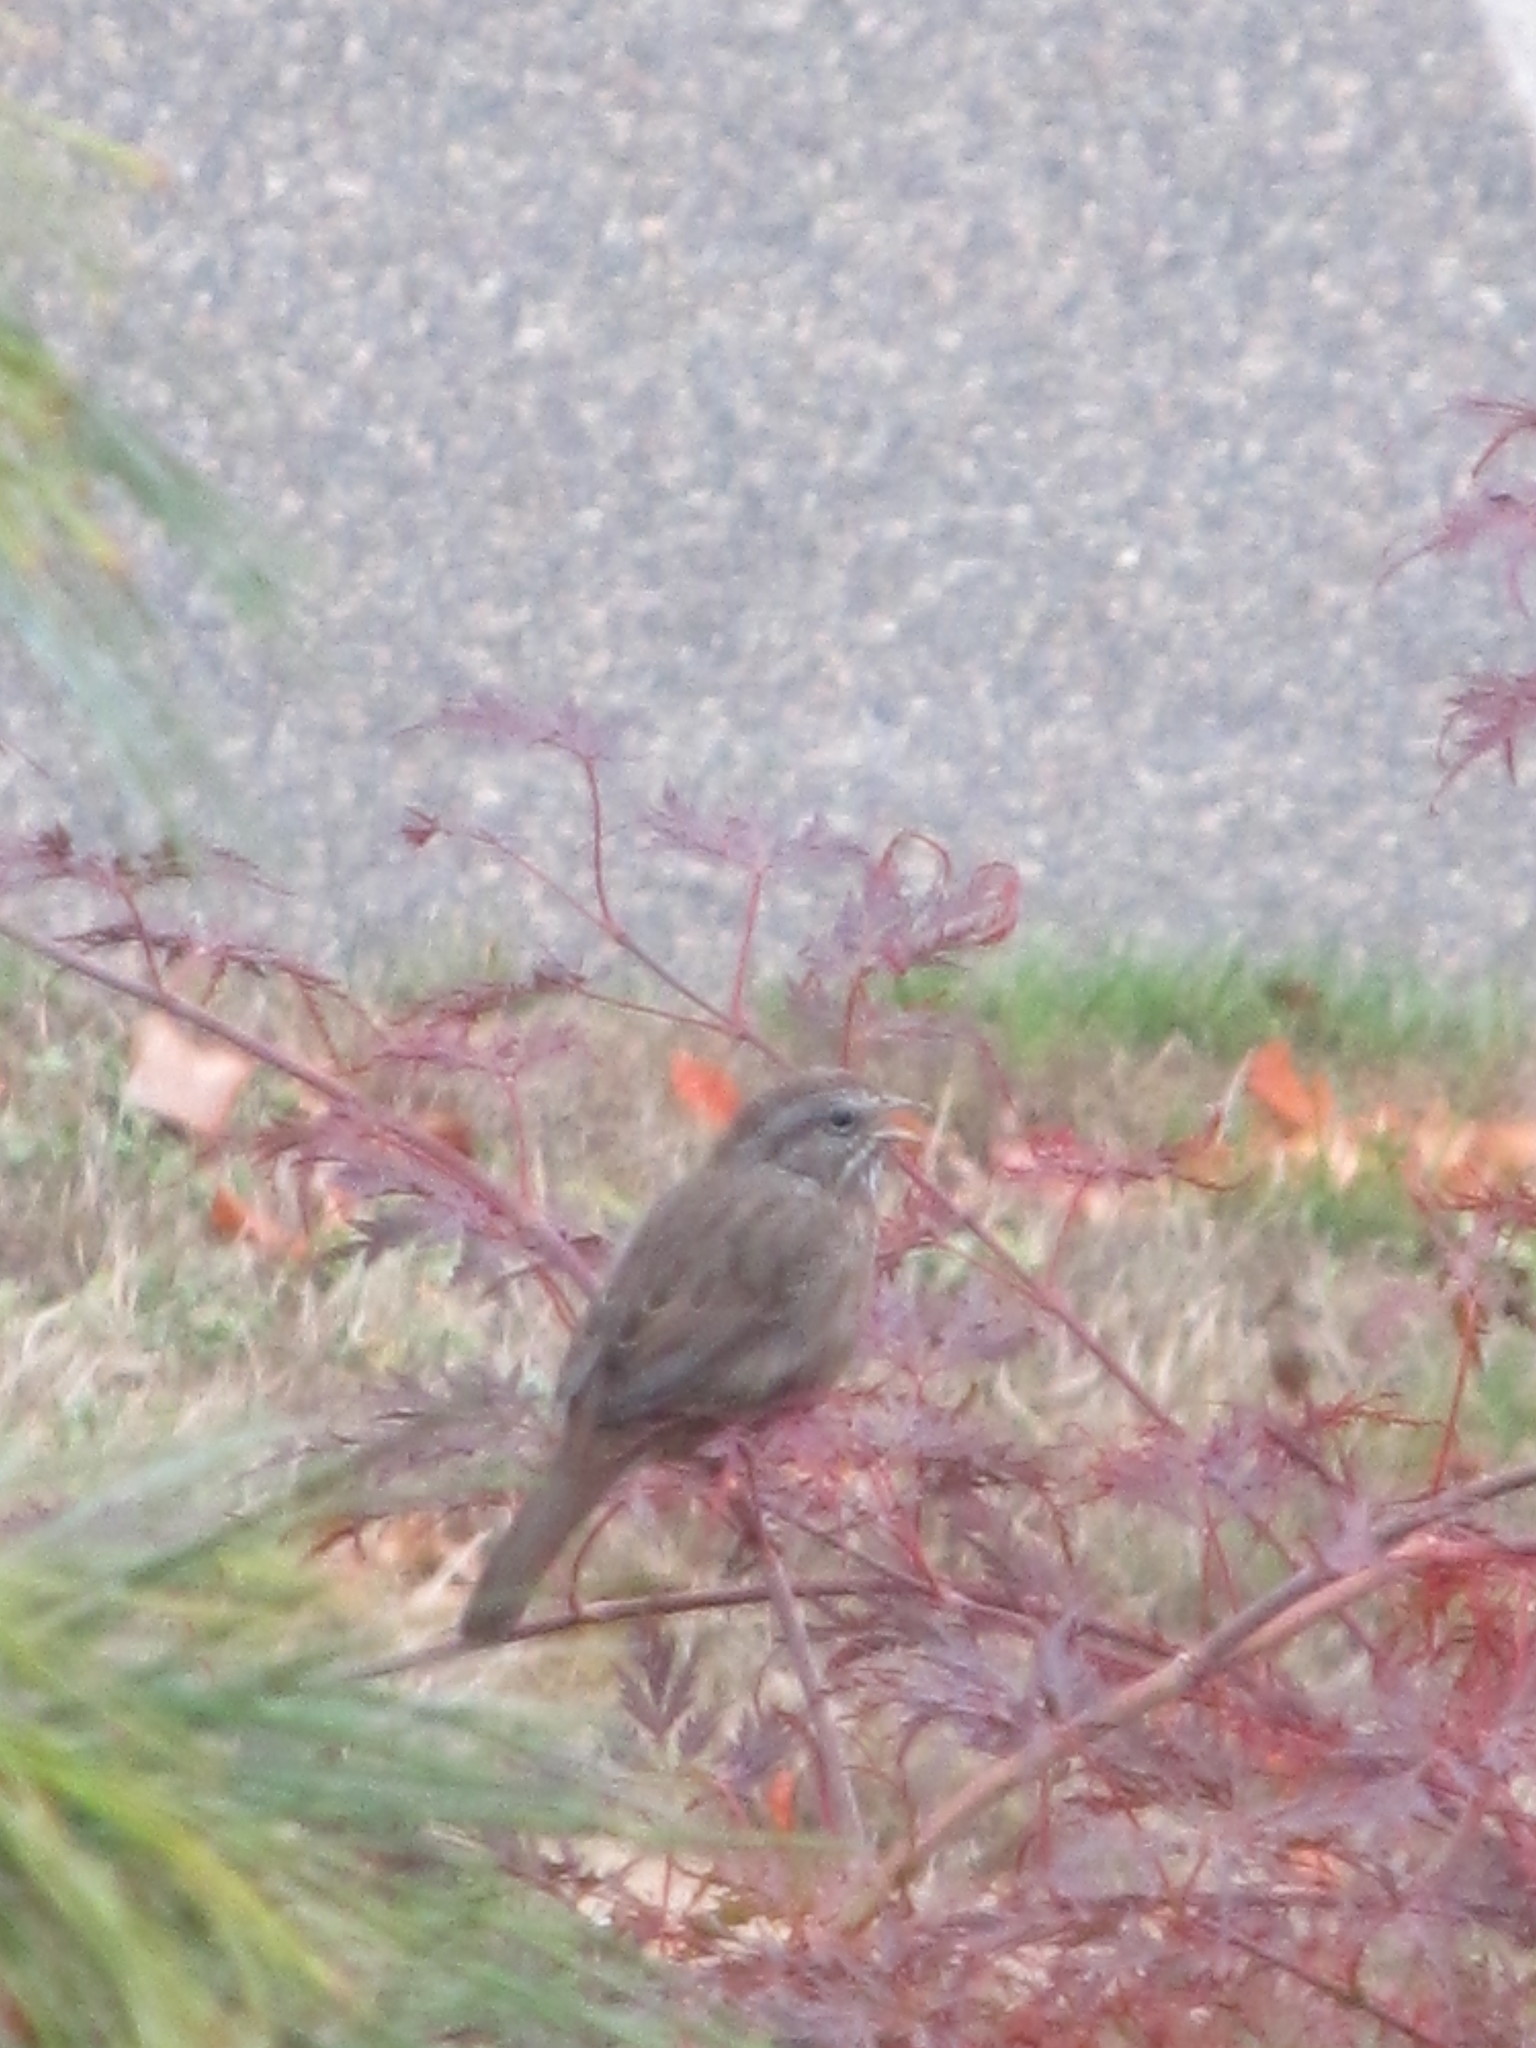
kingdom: Animalia
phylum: Chordata
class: Aves
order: Passeriformes
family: Passerellidae
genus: Melospiza
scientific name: Melospiza melodia
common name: Song sparrow
